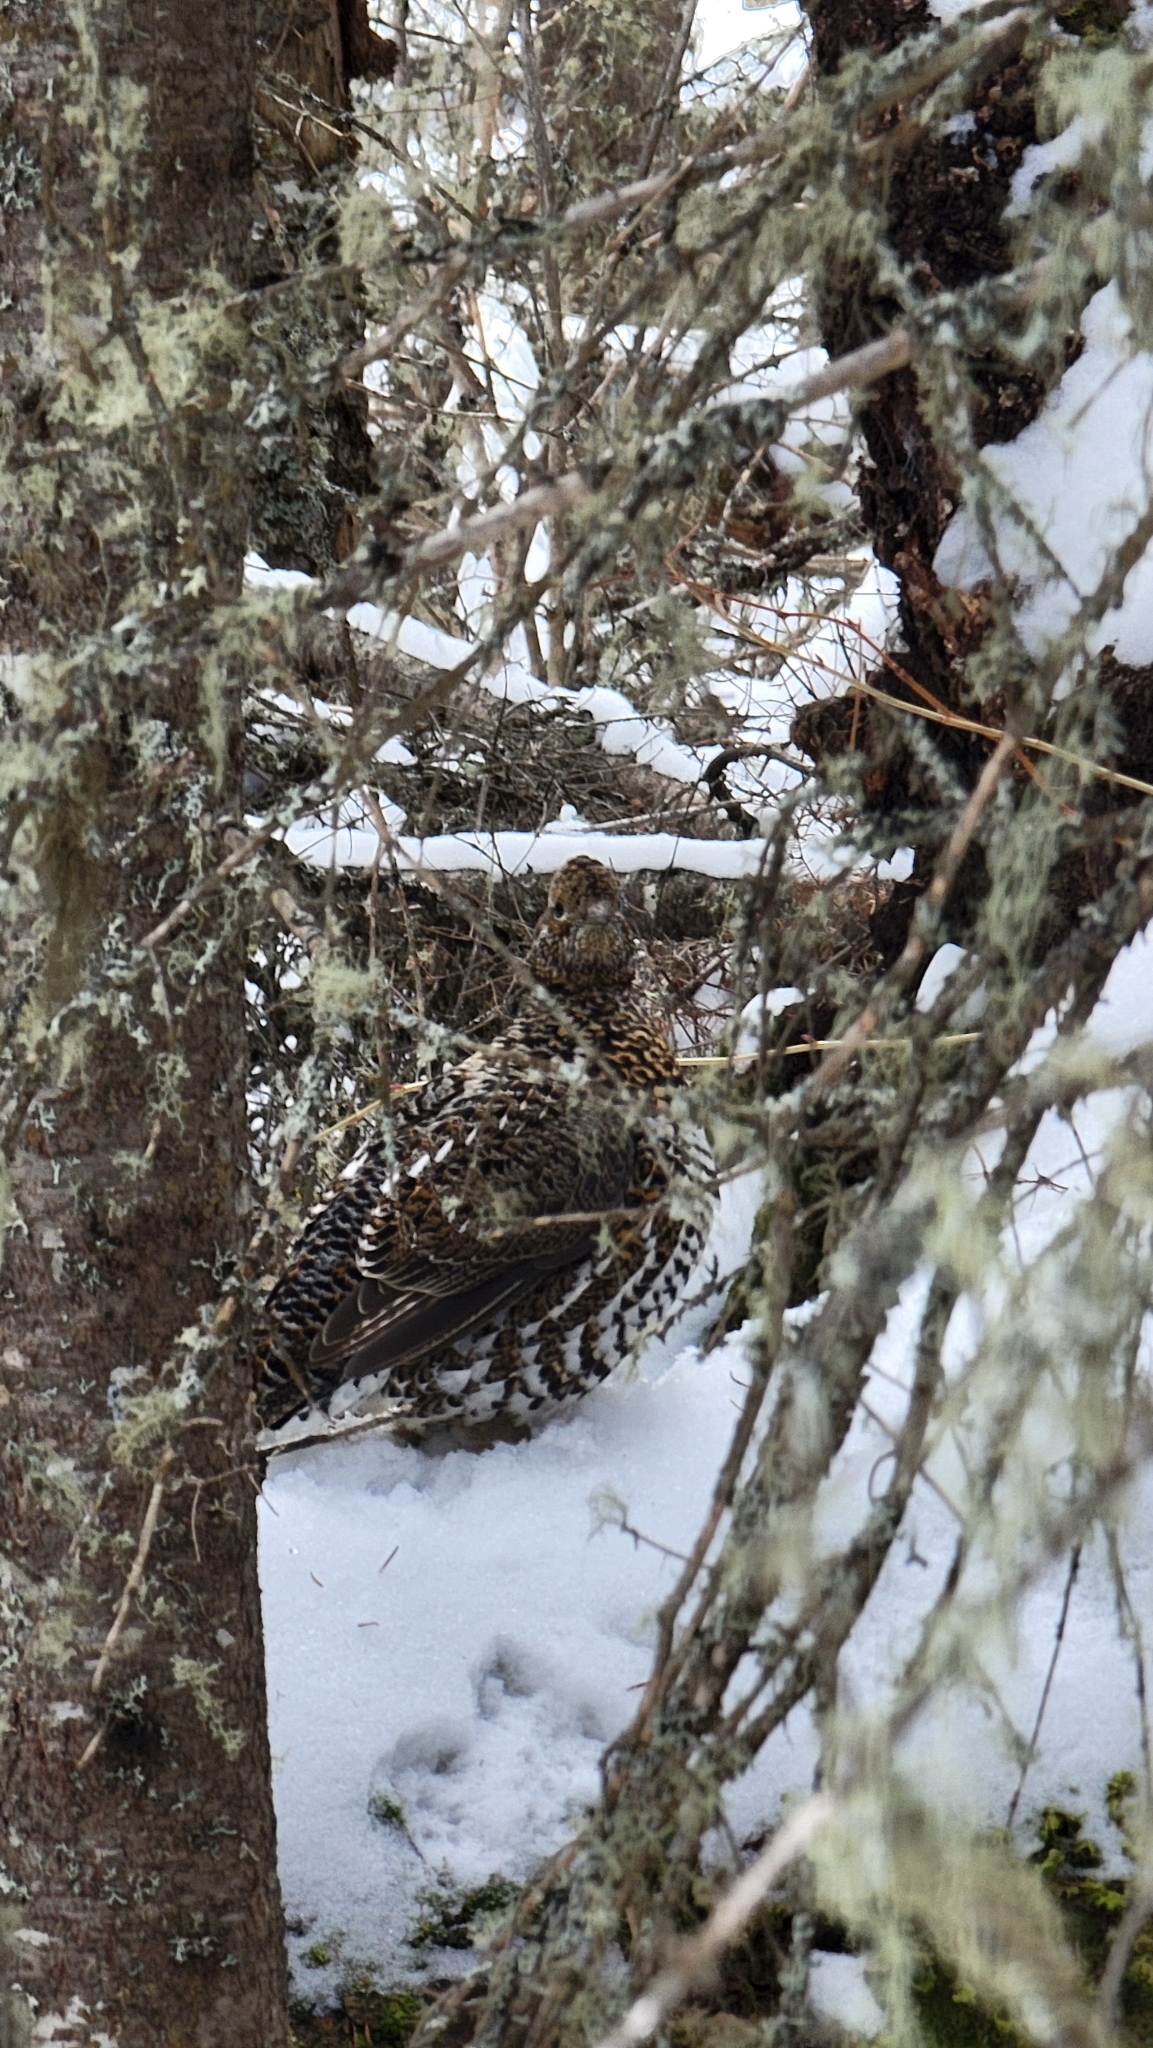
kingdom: Animalia
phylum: Chordata
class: Aves
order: Galliformes
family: Phasianidae
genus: Bonasa
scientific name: Bonasa umbellus
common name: Ruffed grouse
